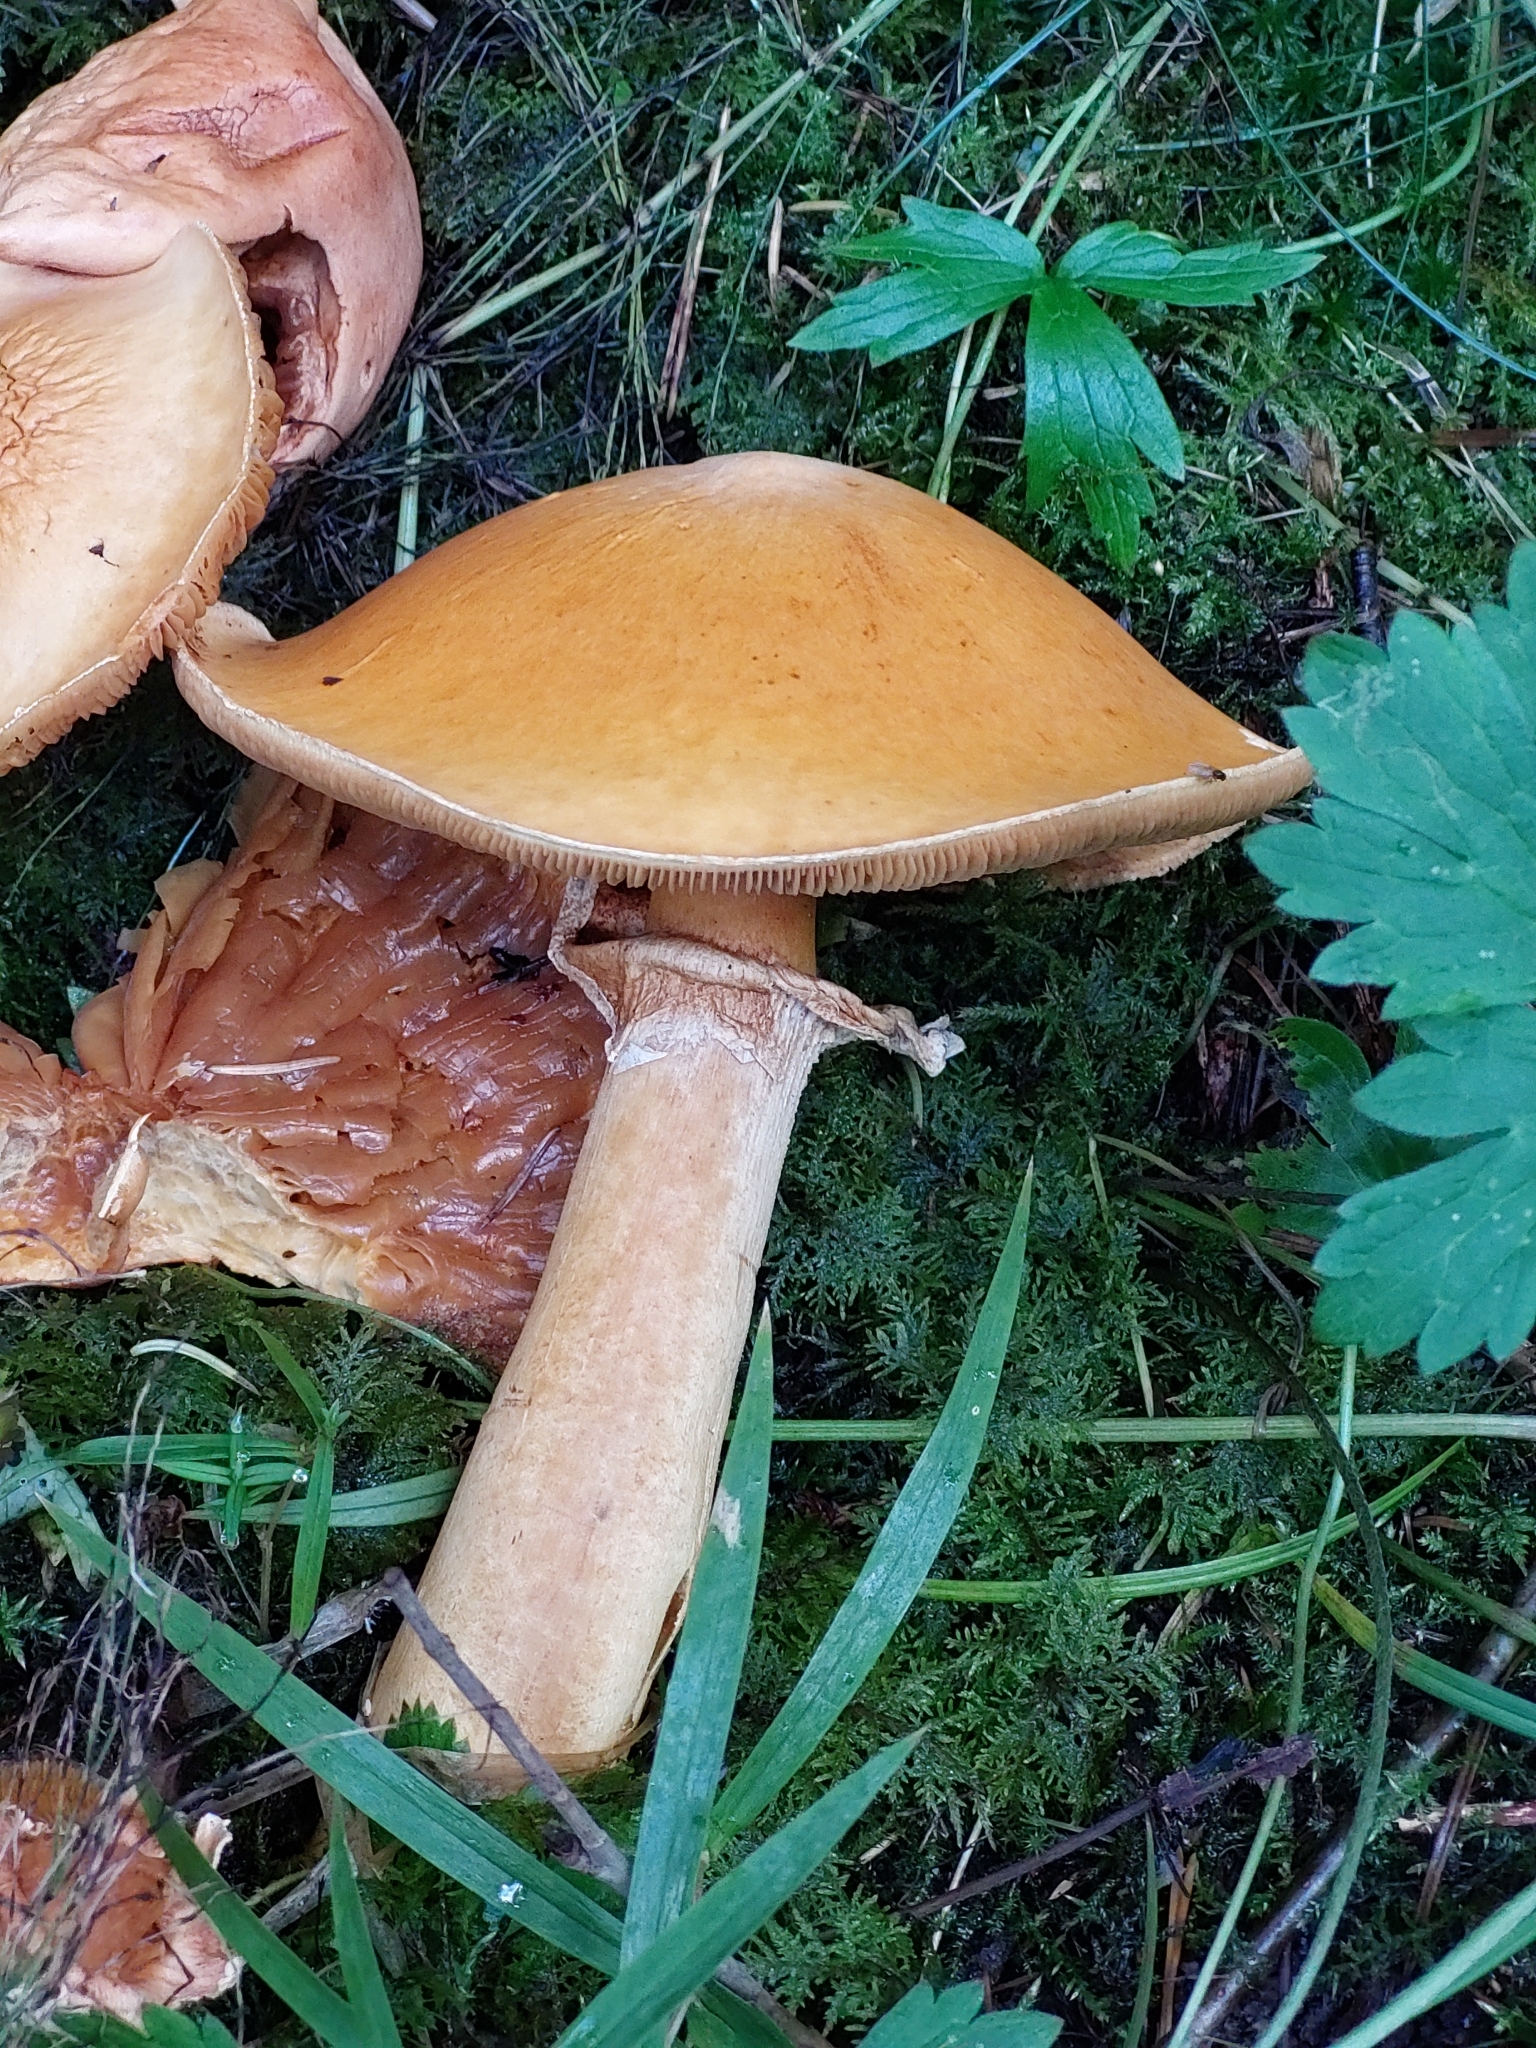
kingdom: Fungi
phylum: Basidiomycota
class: Agaricomycetes
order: Agaricales
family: Tricholomataceae
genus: Phaeolepiota
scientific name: Phaeolepiota aurea
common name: Golden bootleg
